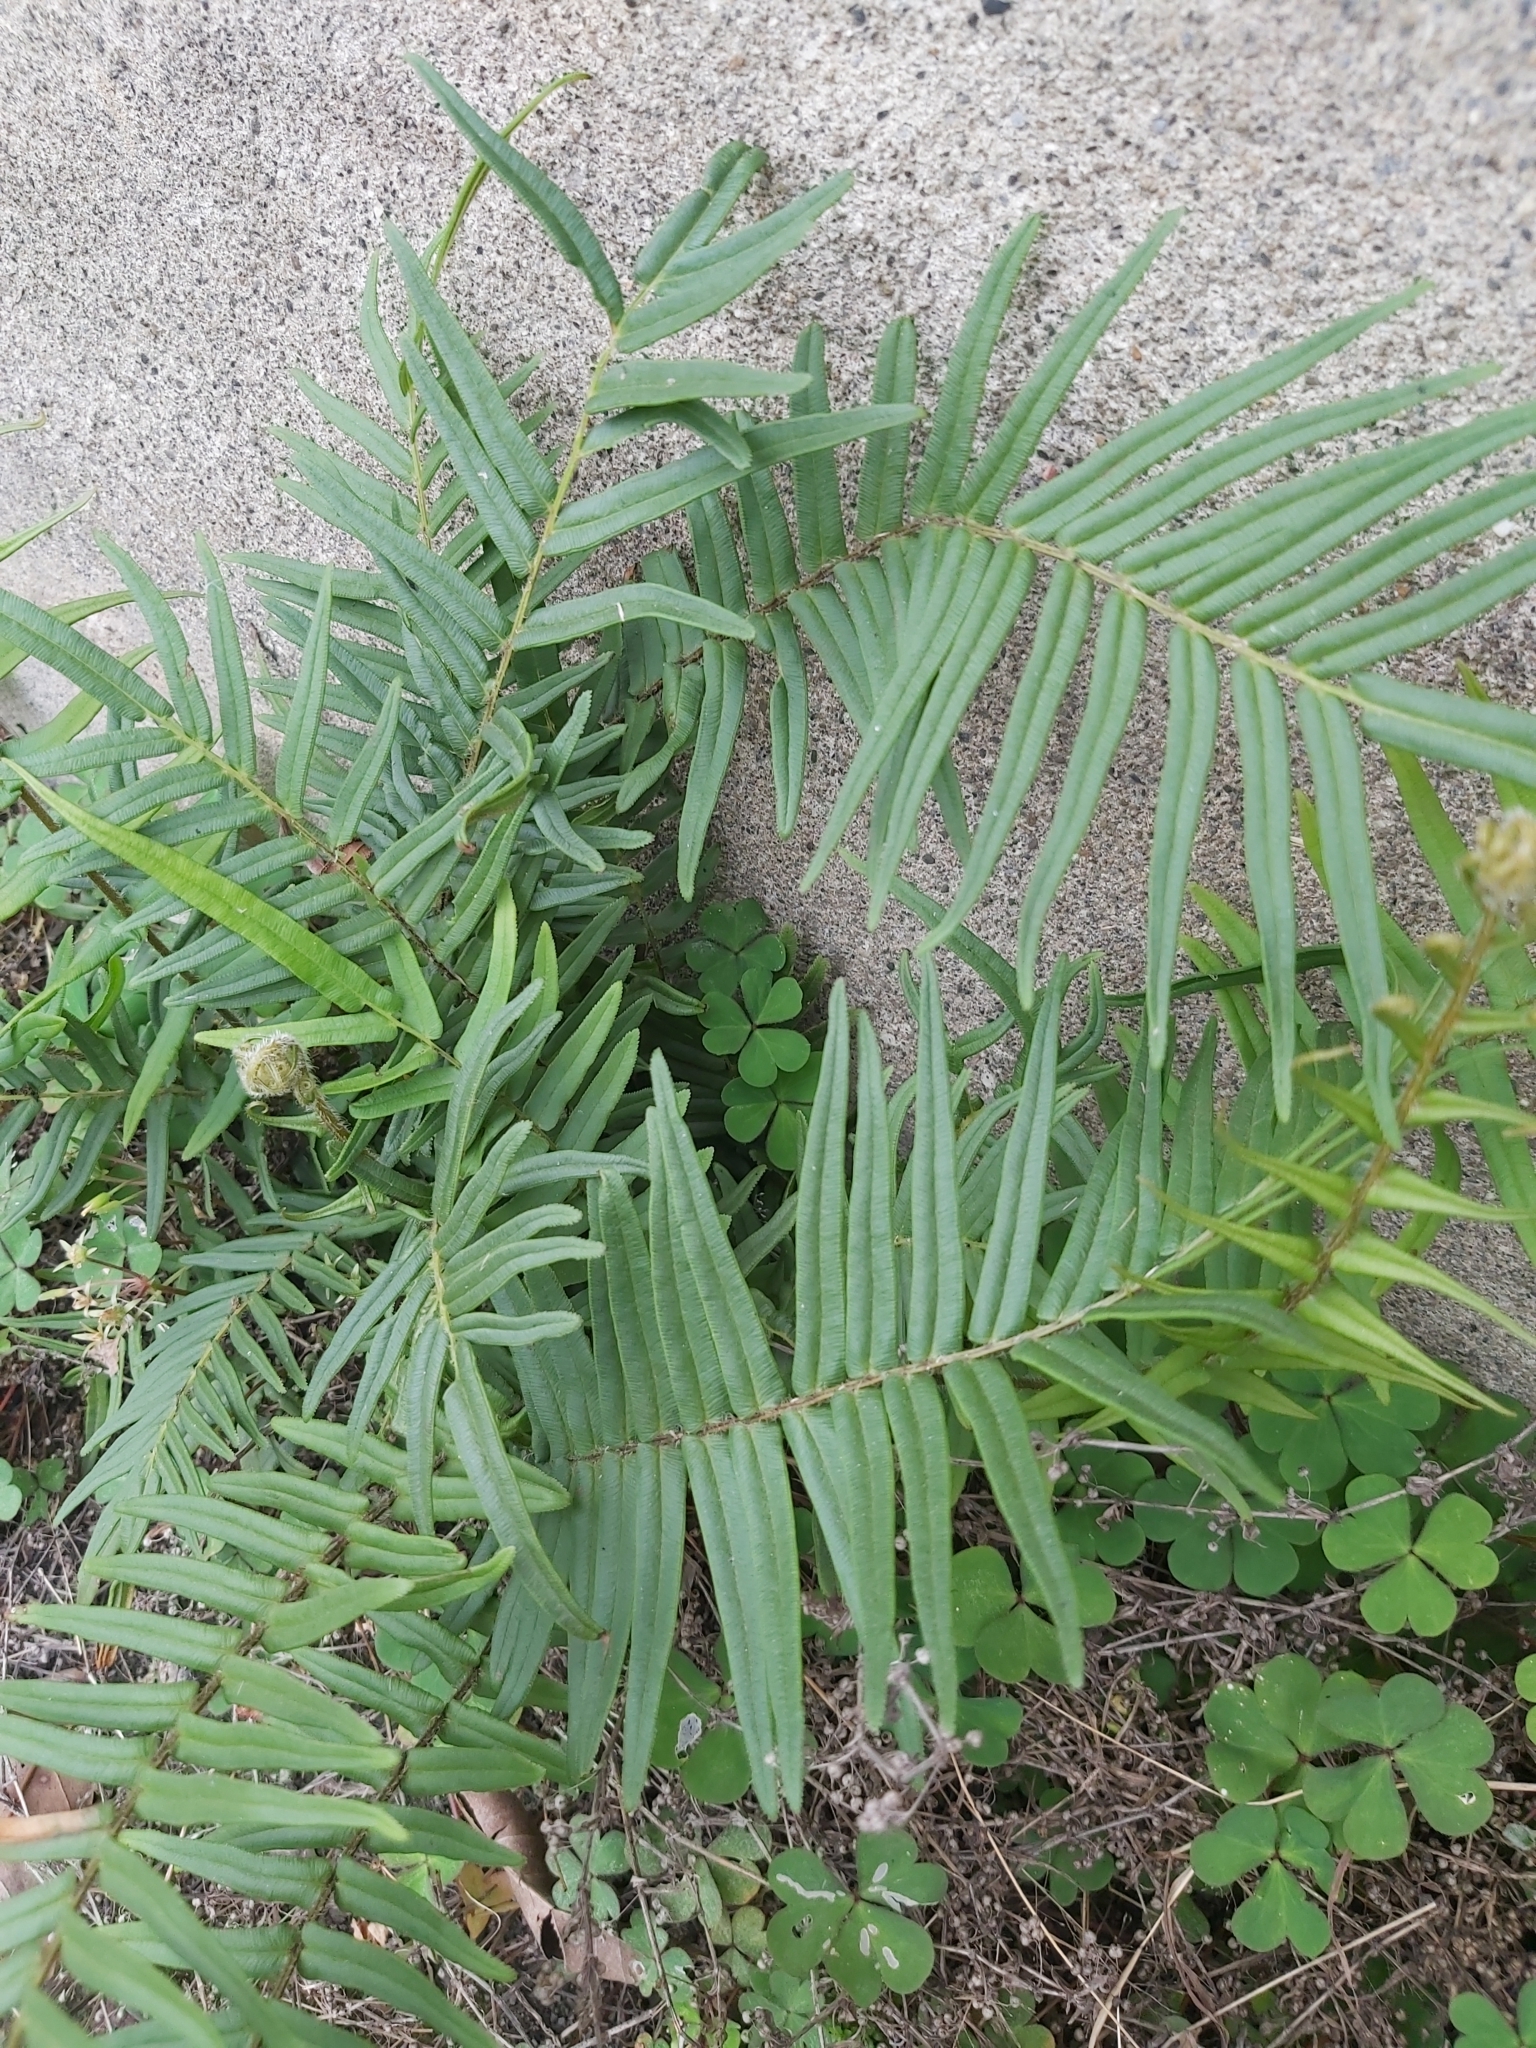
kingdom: Plantae
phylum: Tracheophyta
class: Polypodiopsida
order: Polypodiales
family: Pteridaceae
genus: Pteris
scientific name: Pteris vittata
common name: Ladder brake
